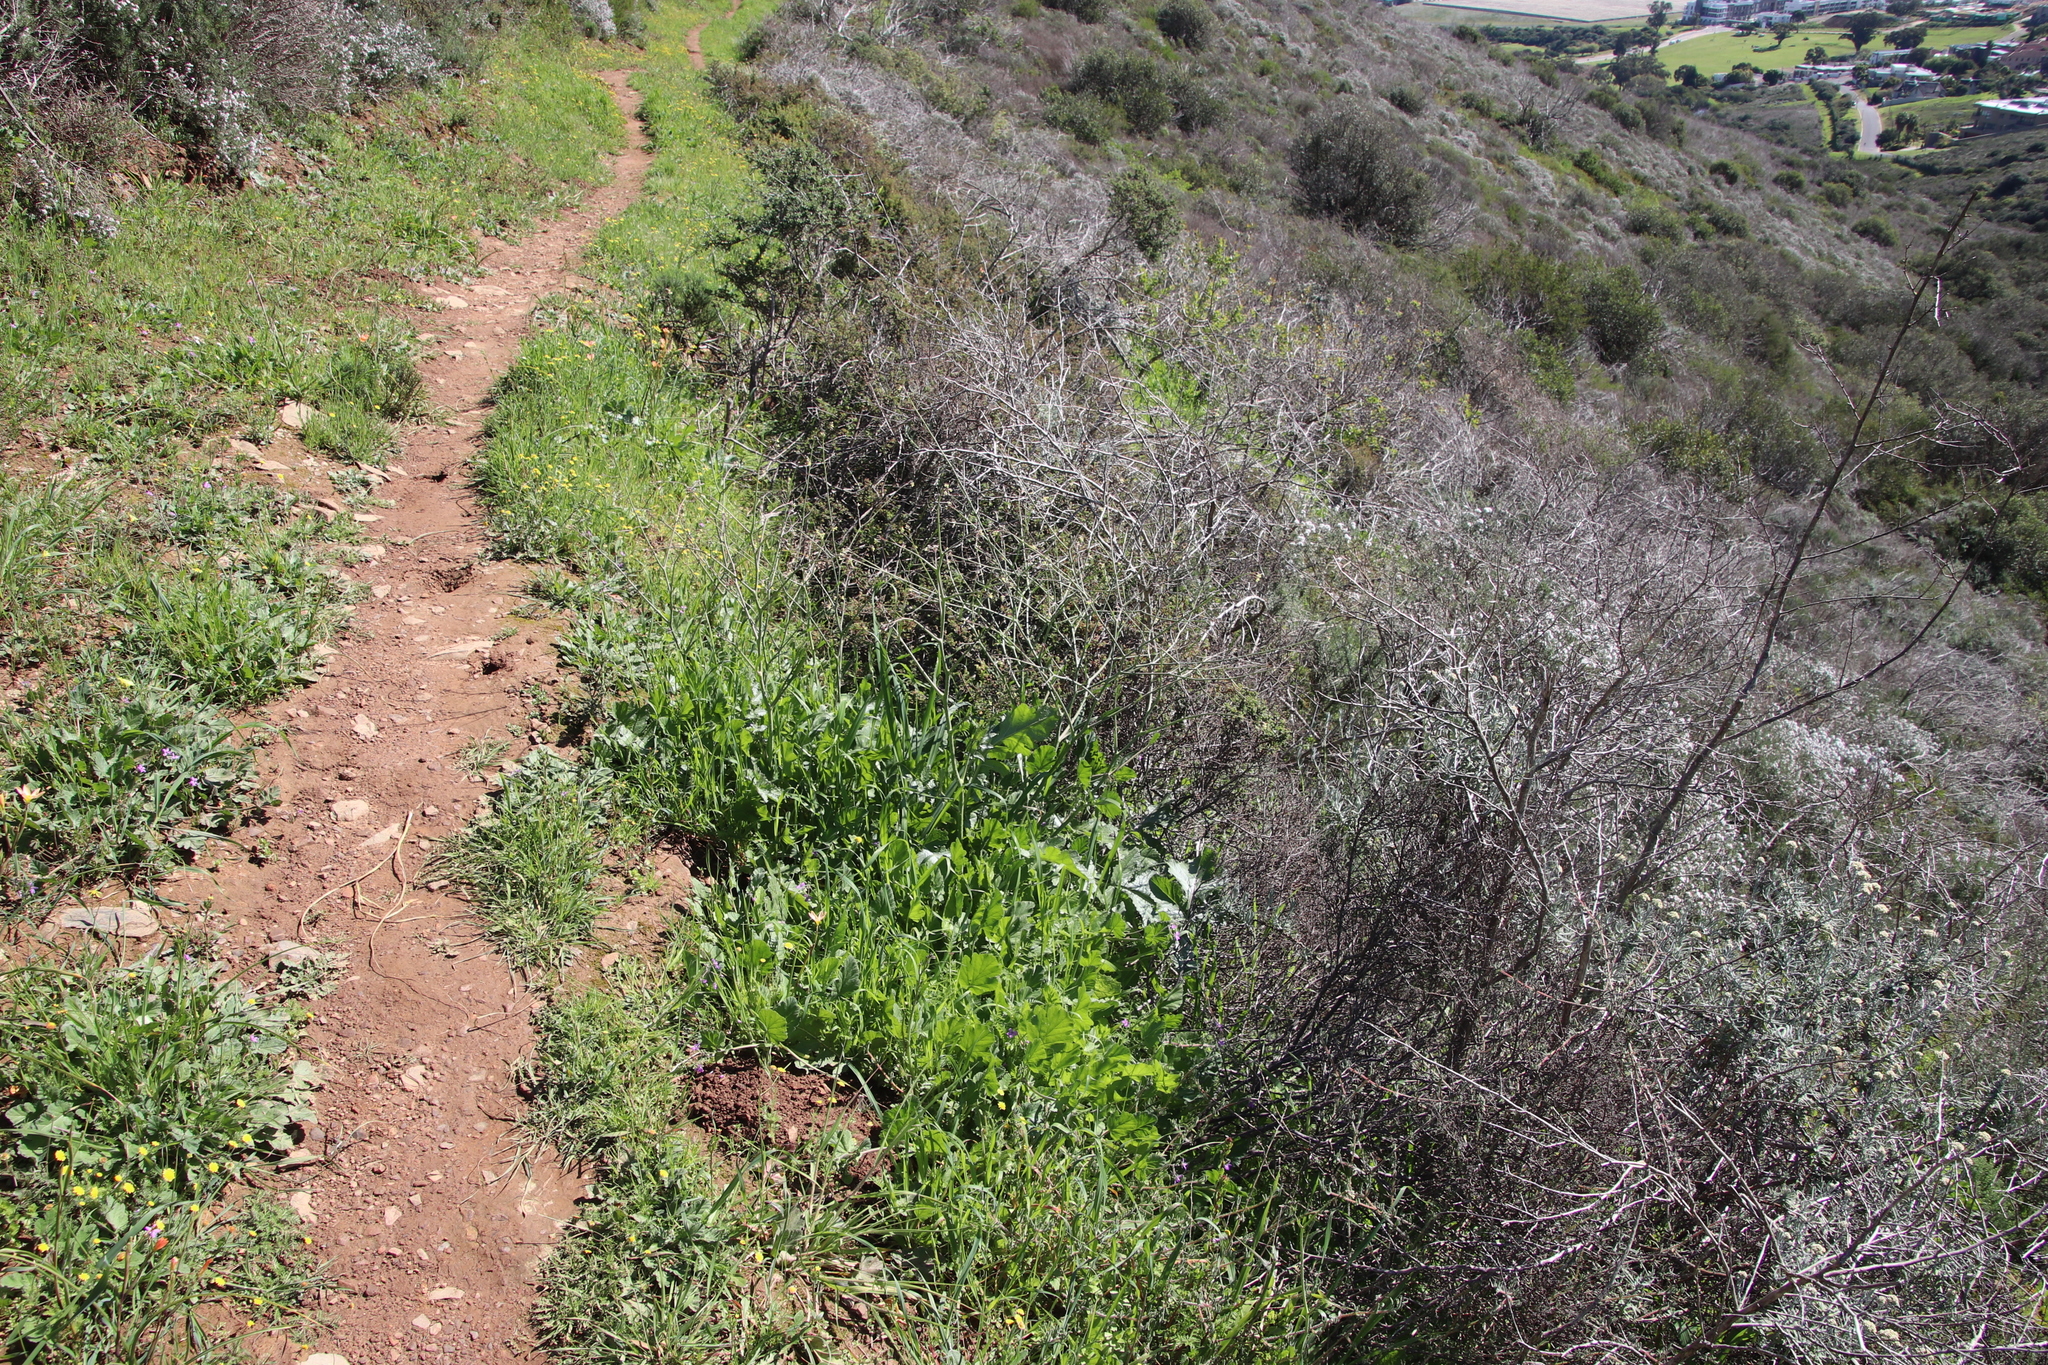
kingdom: Plantae
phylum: Tracheophyta
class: Magnoliopsida
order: Brassicales
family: Brassicaceae
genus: Brassica
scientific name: Brassica tournefortii
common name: Pale cabbage
